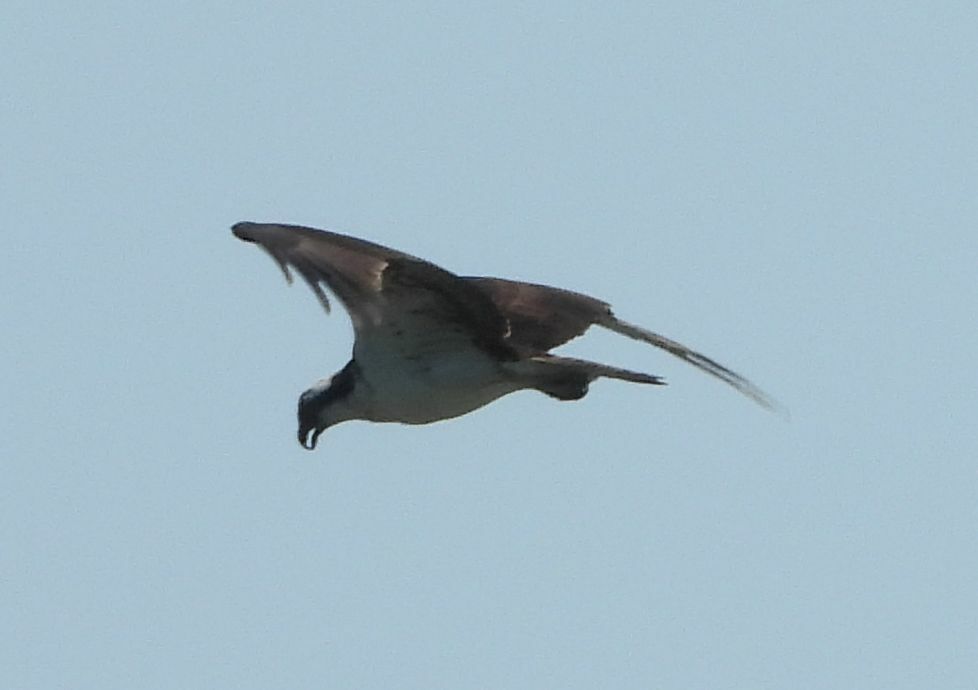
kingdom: Animalia
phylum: Chordata
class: Aves
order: Accipitriformes
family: Pandionidae
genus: Pandion
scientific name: Pandion haliaetus
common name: Osprey
